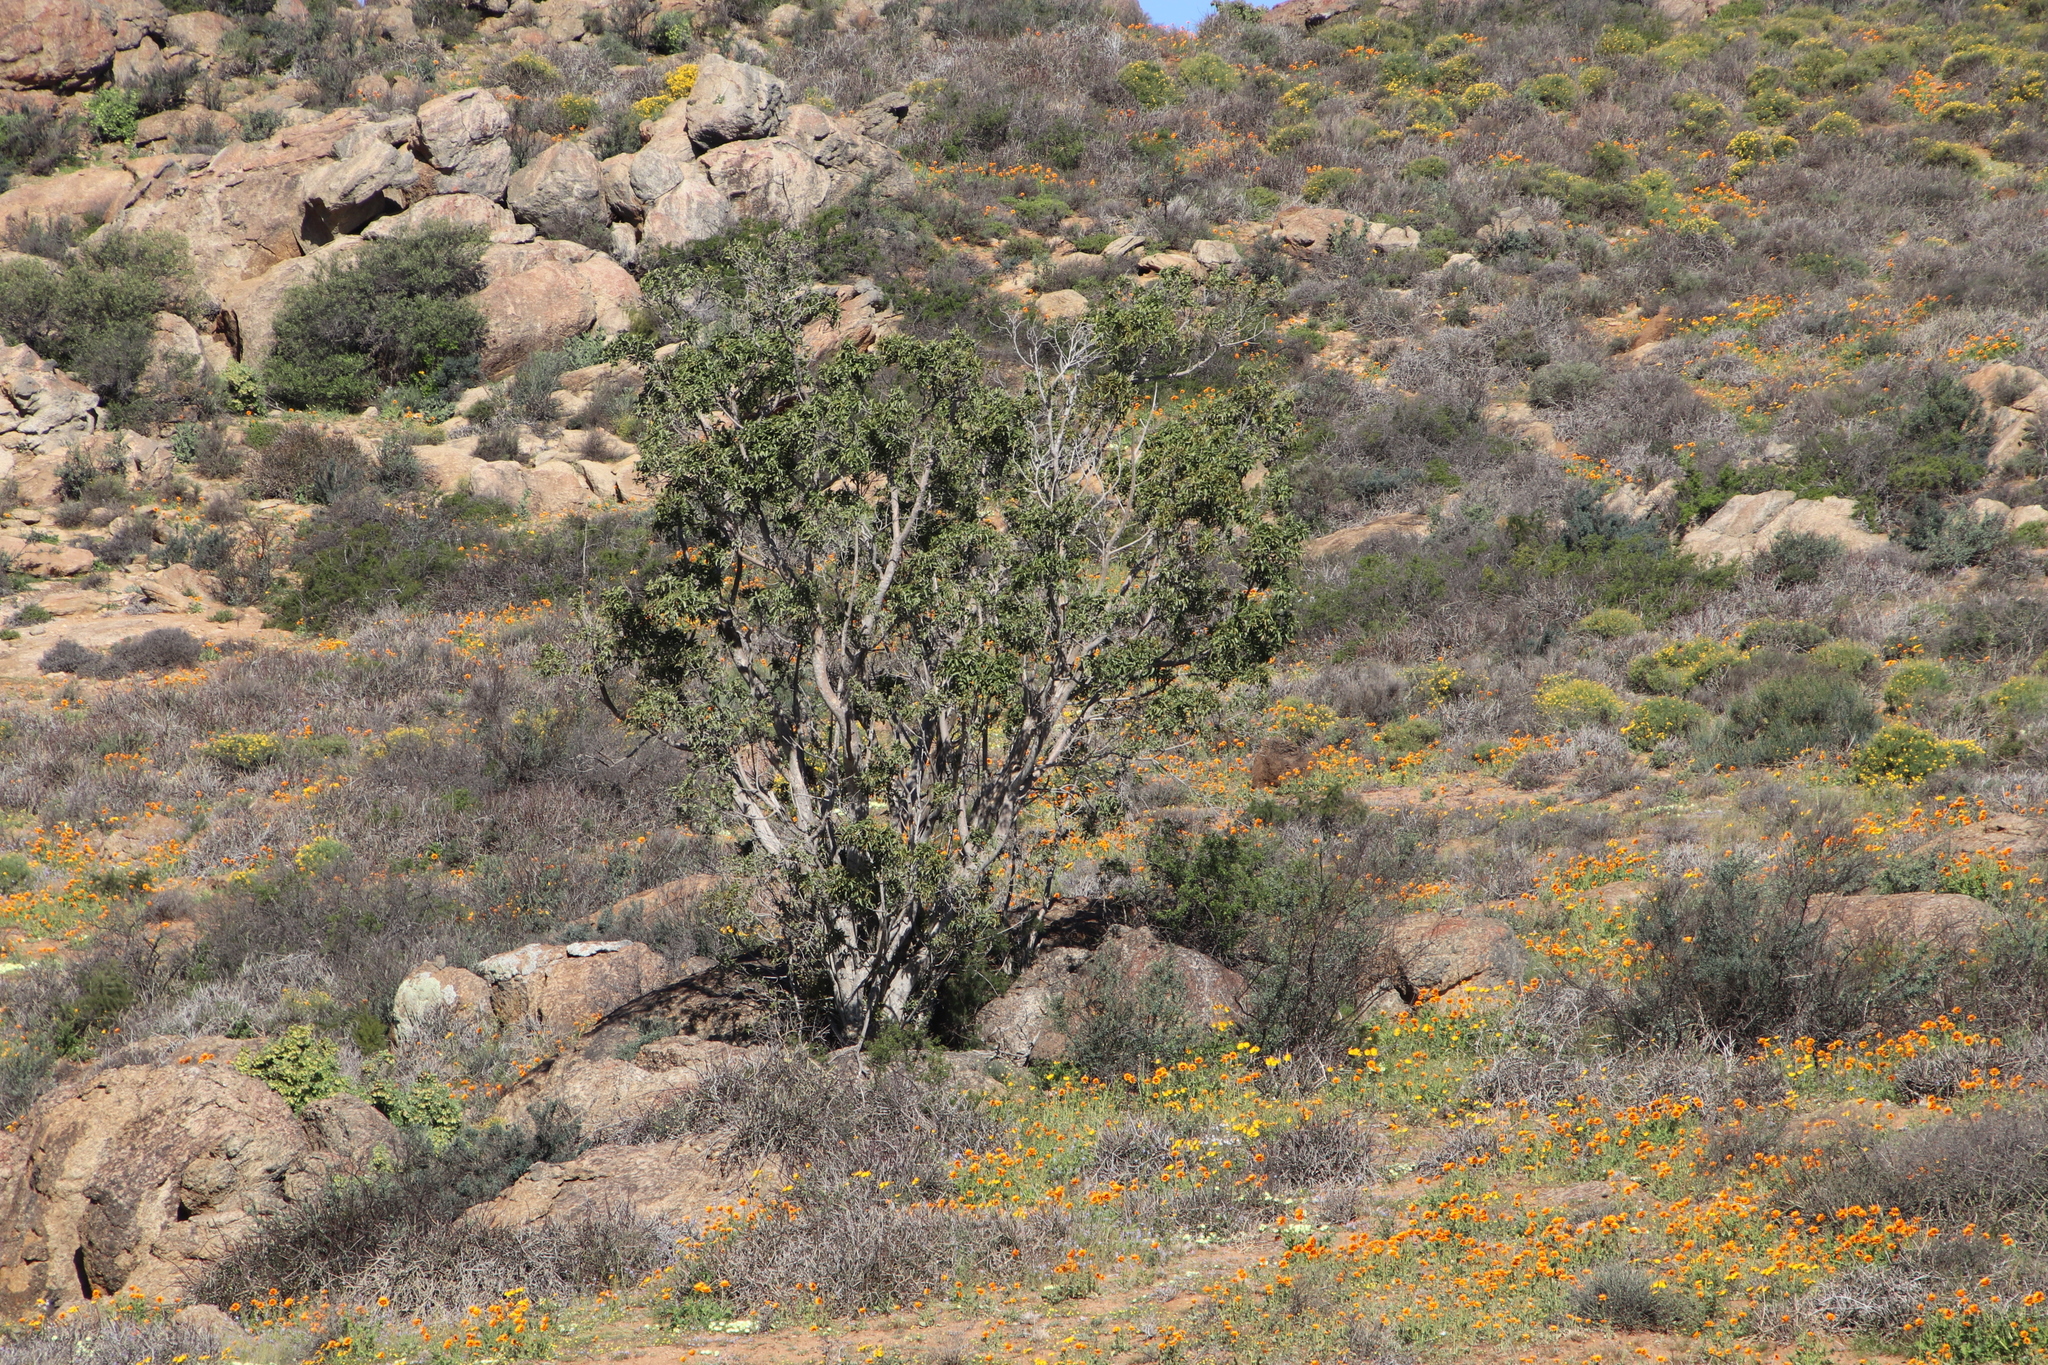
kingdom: Plantae
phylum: Tracheophyta
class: Magnoliopsida
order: Rosales
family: Moraceae
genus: Ficus
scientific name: Ficus cordata
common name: Namaqua rock fig
